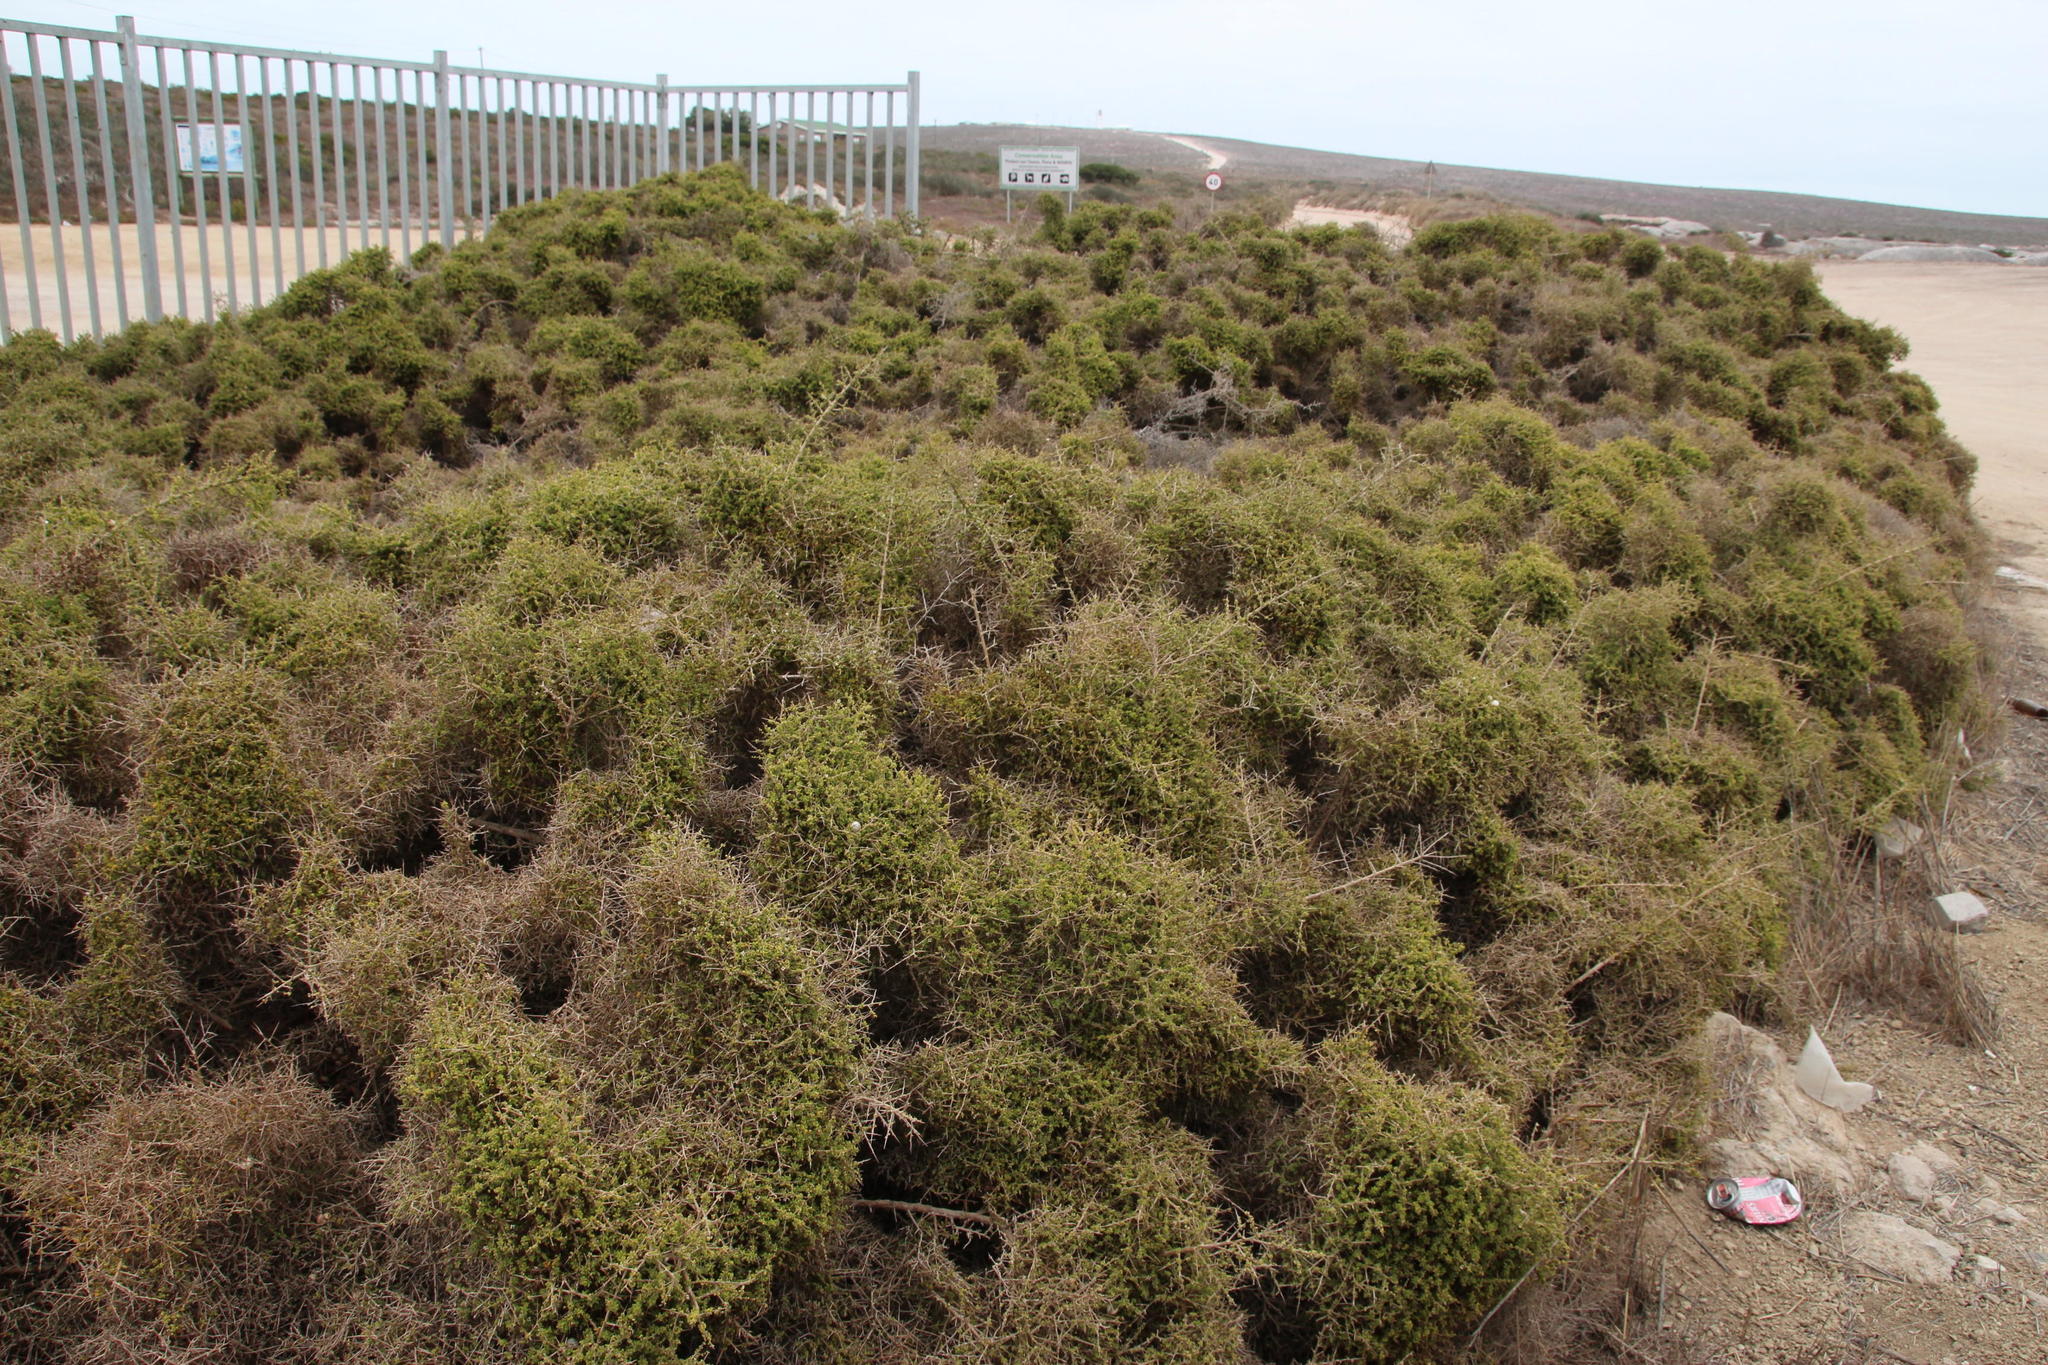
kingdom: Animalia
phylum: Chordata
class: Mammalia
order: Rodentia
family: Muridae
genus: Myotomys
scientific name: Myotomys unisulcatus
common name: Bush karroo rat
